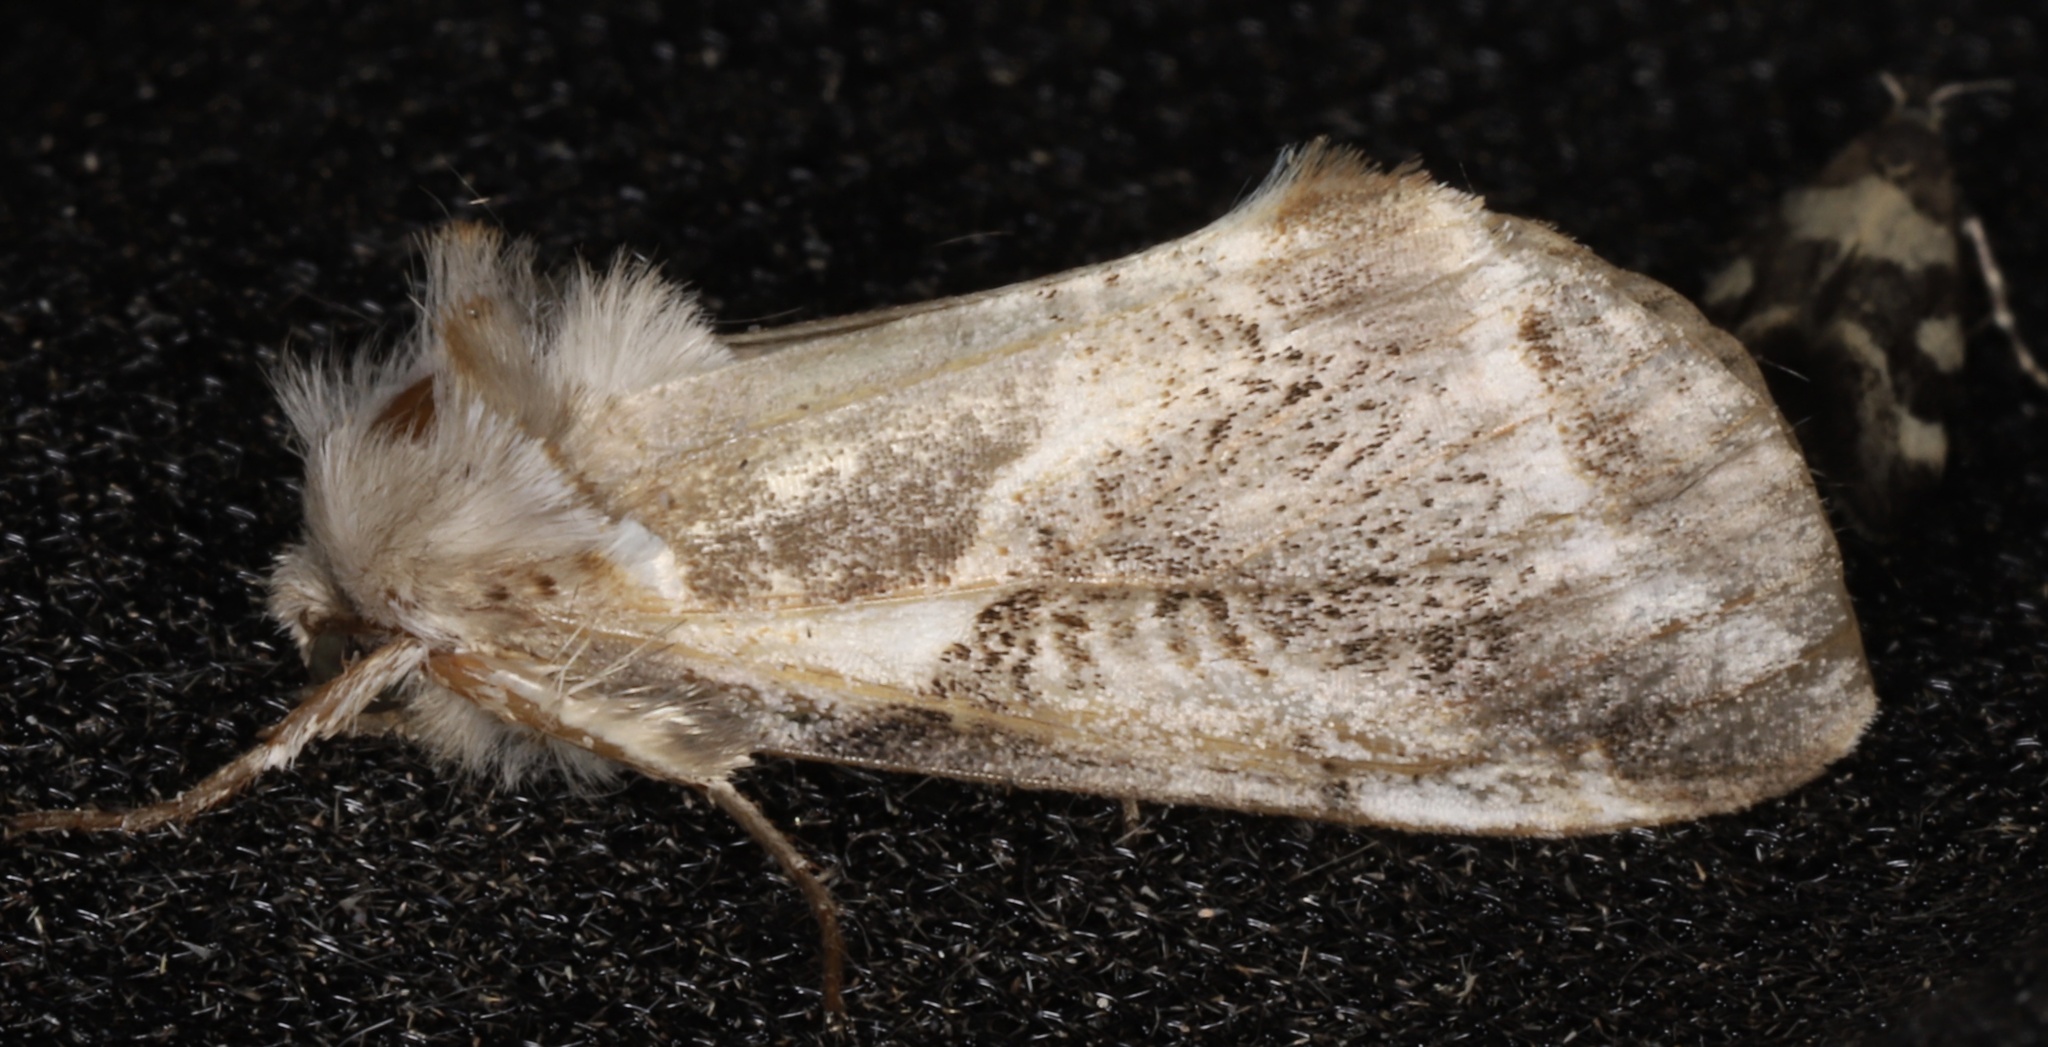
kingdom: Animalia
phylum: Arthropoda
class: Insecta
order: Lepidoptera
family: Drepanidae
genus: Habrosyne
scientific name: Habrosyne scripta
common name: Lettered habrosyne moth
